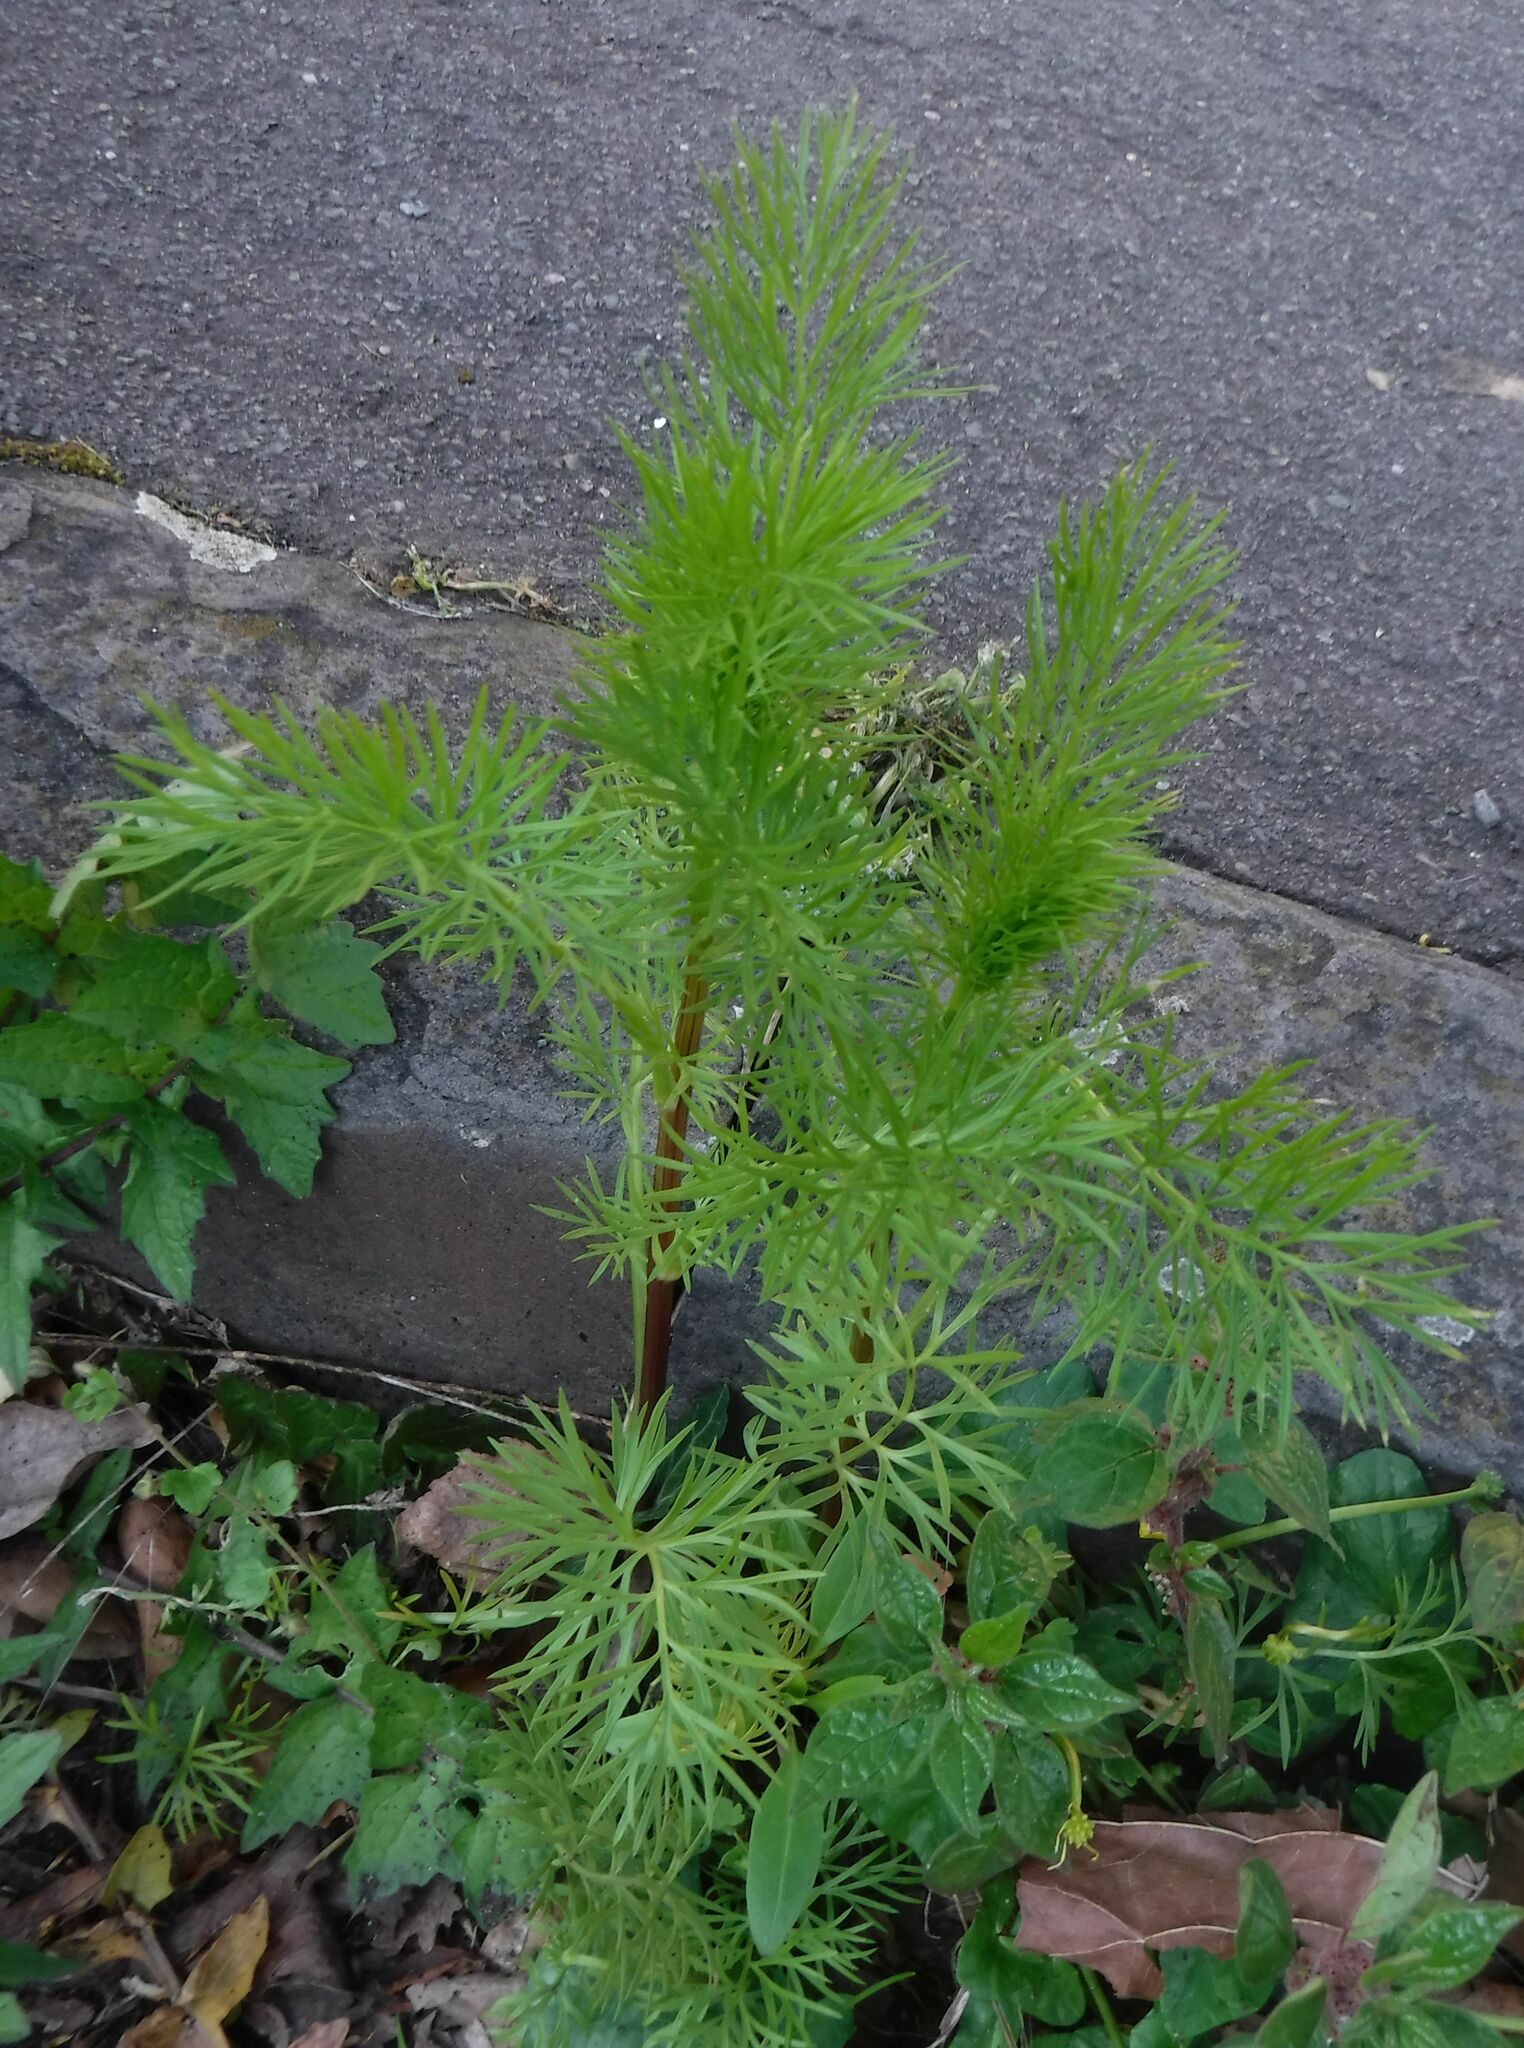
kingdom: Plantae
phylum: Tracheophyta
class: Magnoliopsida
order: Ranunculales
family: Ranunculaceae
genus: Nigella
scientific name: Nigella damascena
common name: Love-in-a-mist
